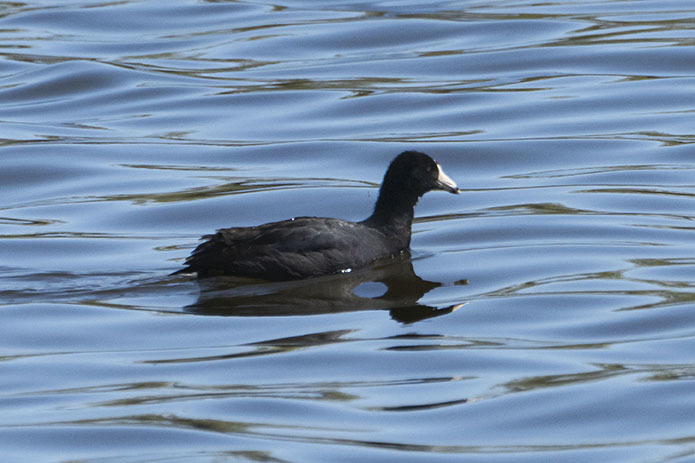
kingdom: Animalia
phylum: Chordata
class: Aves
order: Gruiformes
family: Rallidae
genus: Fulica
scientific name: Fulica americana
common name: American coot
